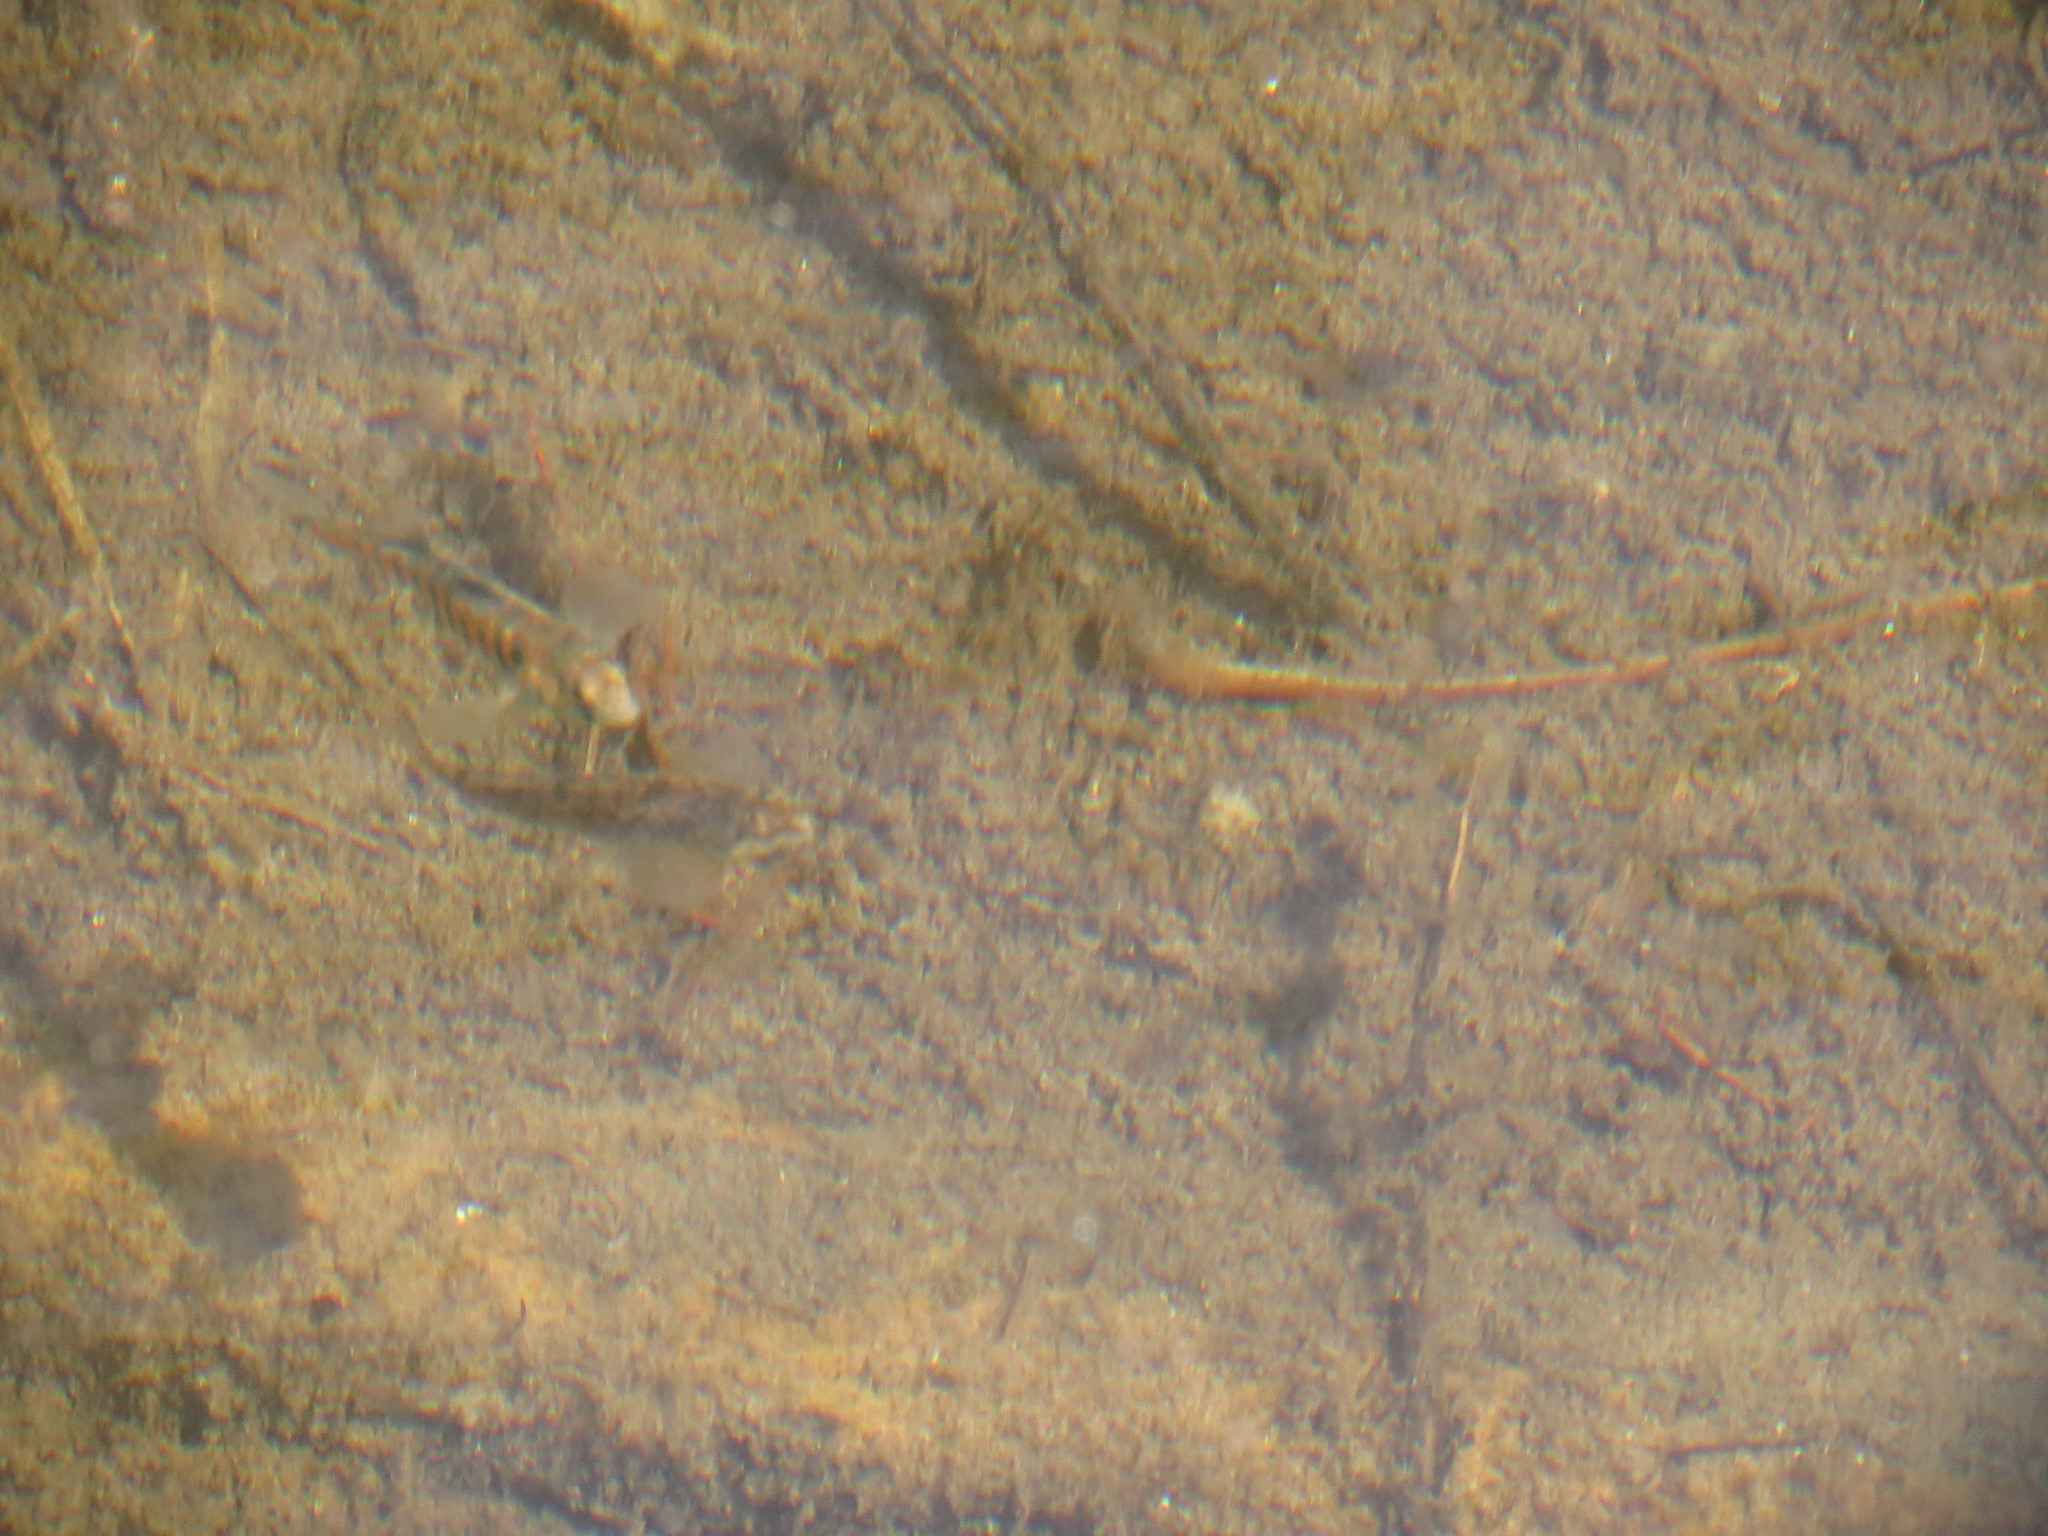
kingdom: Animalia
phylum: Chordata
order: Perciformes
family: Percidae
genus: Etheostoma
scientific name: Etheostoma exile
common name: Iowa darter
